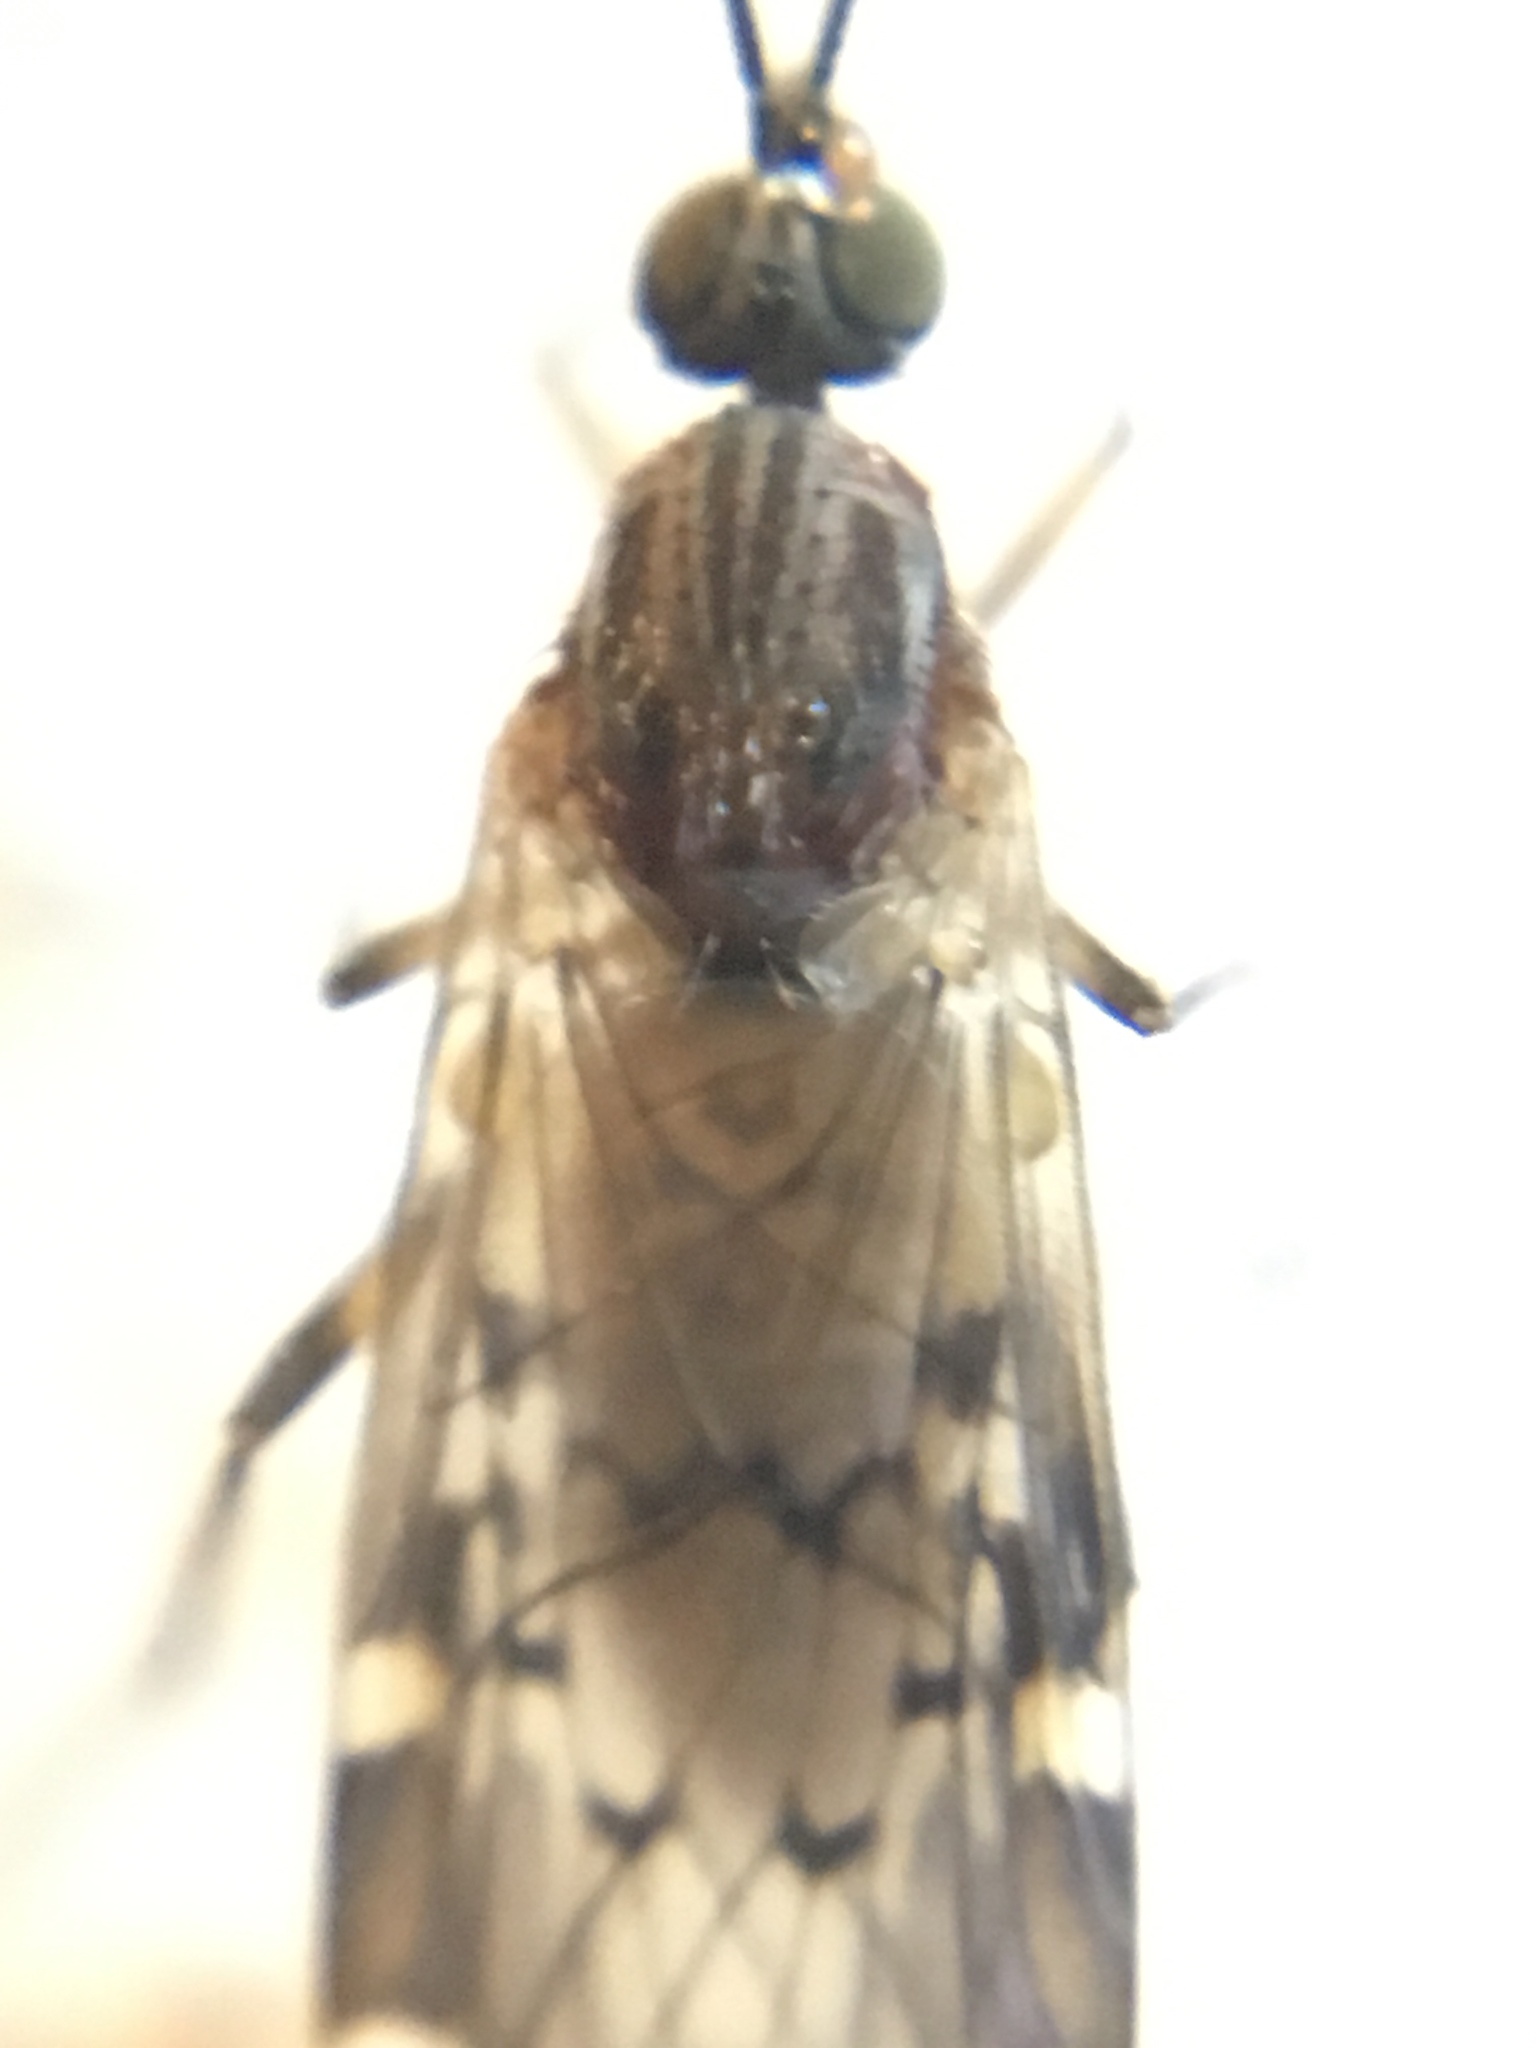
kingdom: Animalia
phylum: Arthropoda
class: Insecta
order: Diptera
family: Anisopodidae
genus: Sylvicola
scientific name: Sylvicola alternata
